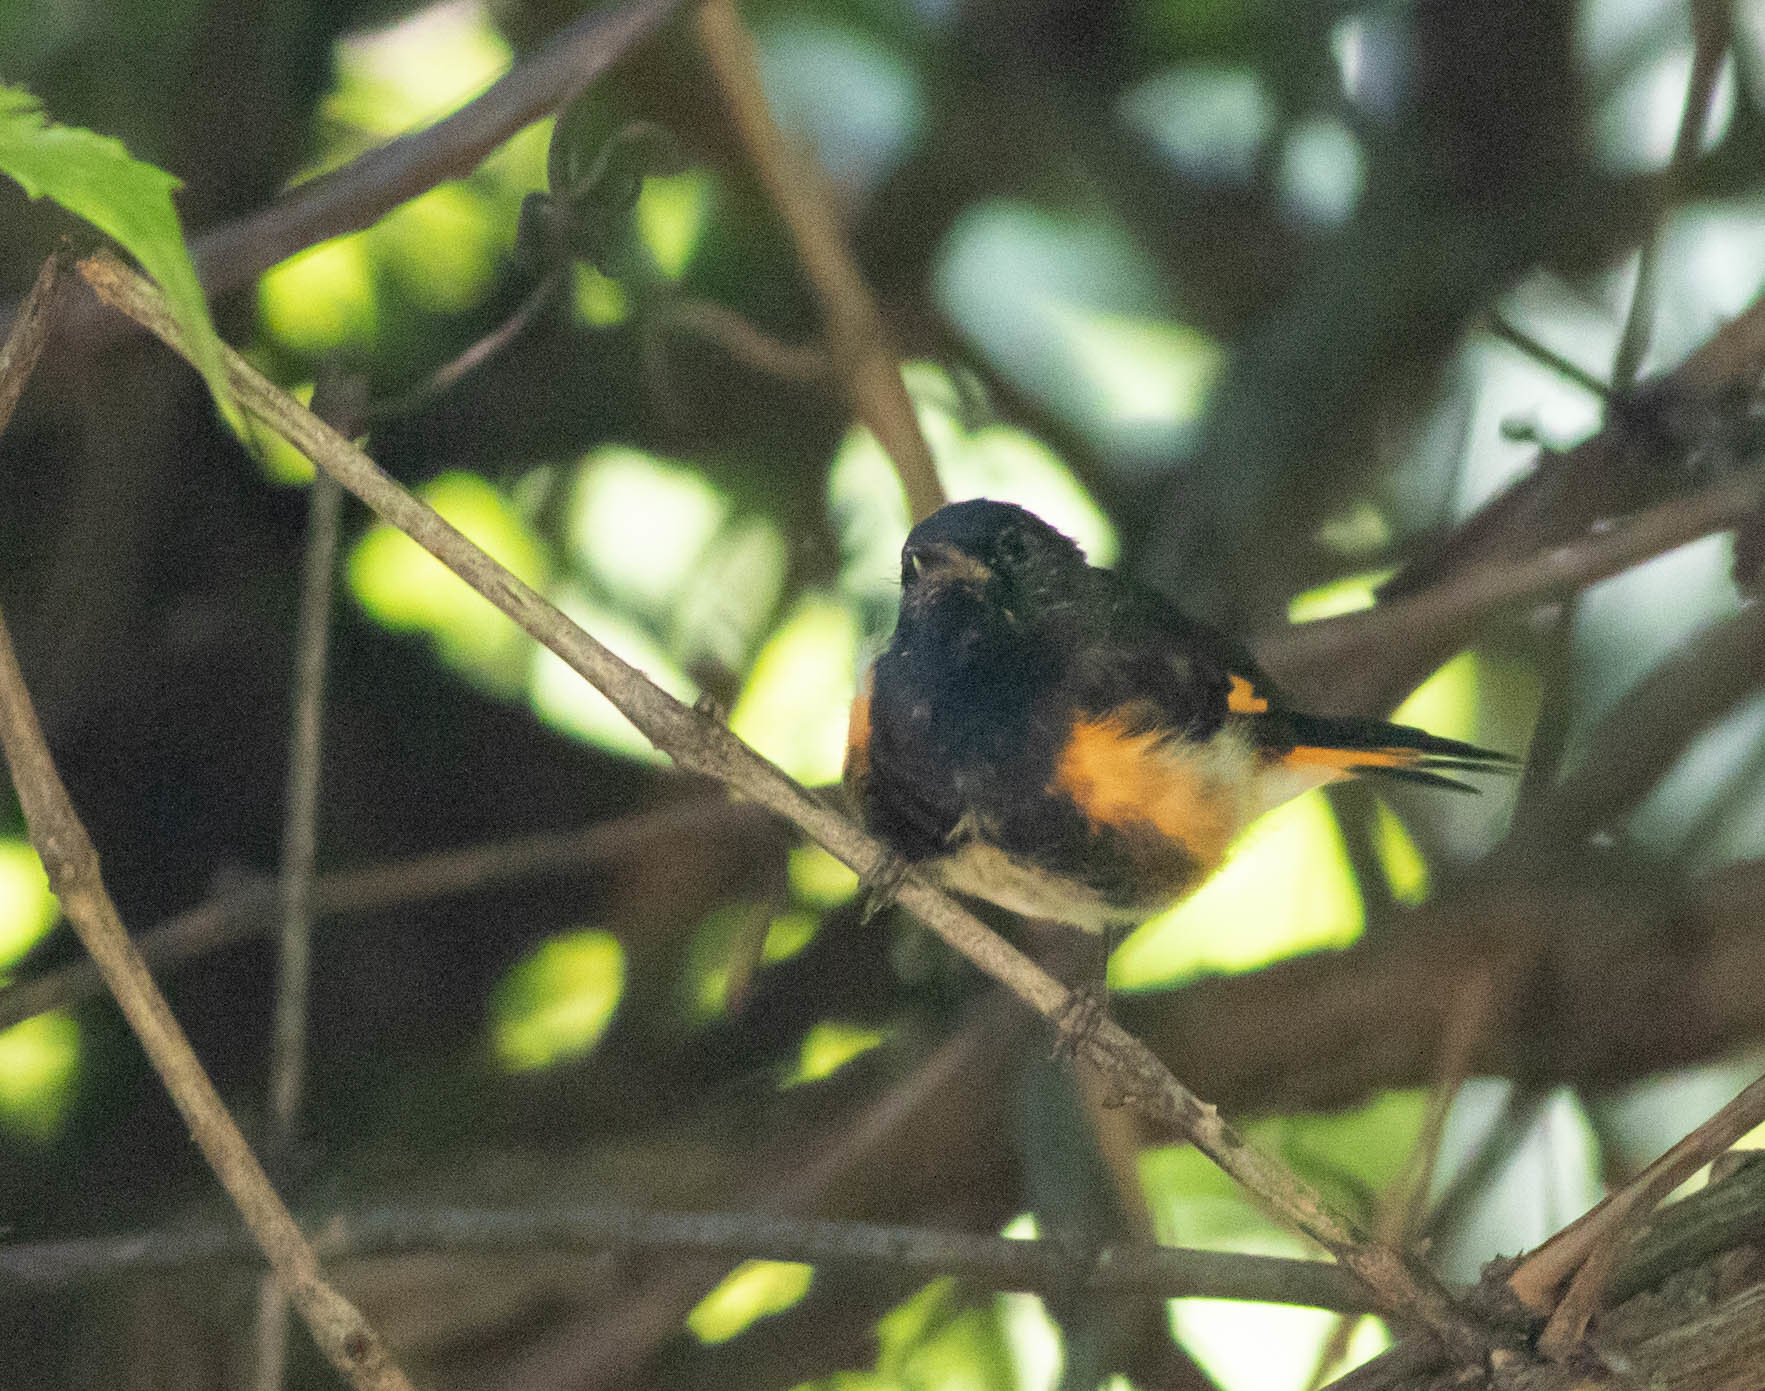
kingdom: Animalia
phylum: Chordata
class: Aves
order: Passeriformes
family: Parulidae
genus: Setophaga
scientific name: Setophaga ruticilla
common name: American redstart
